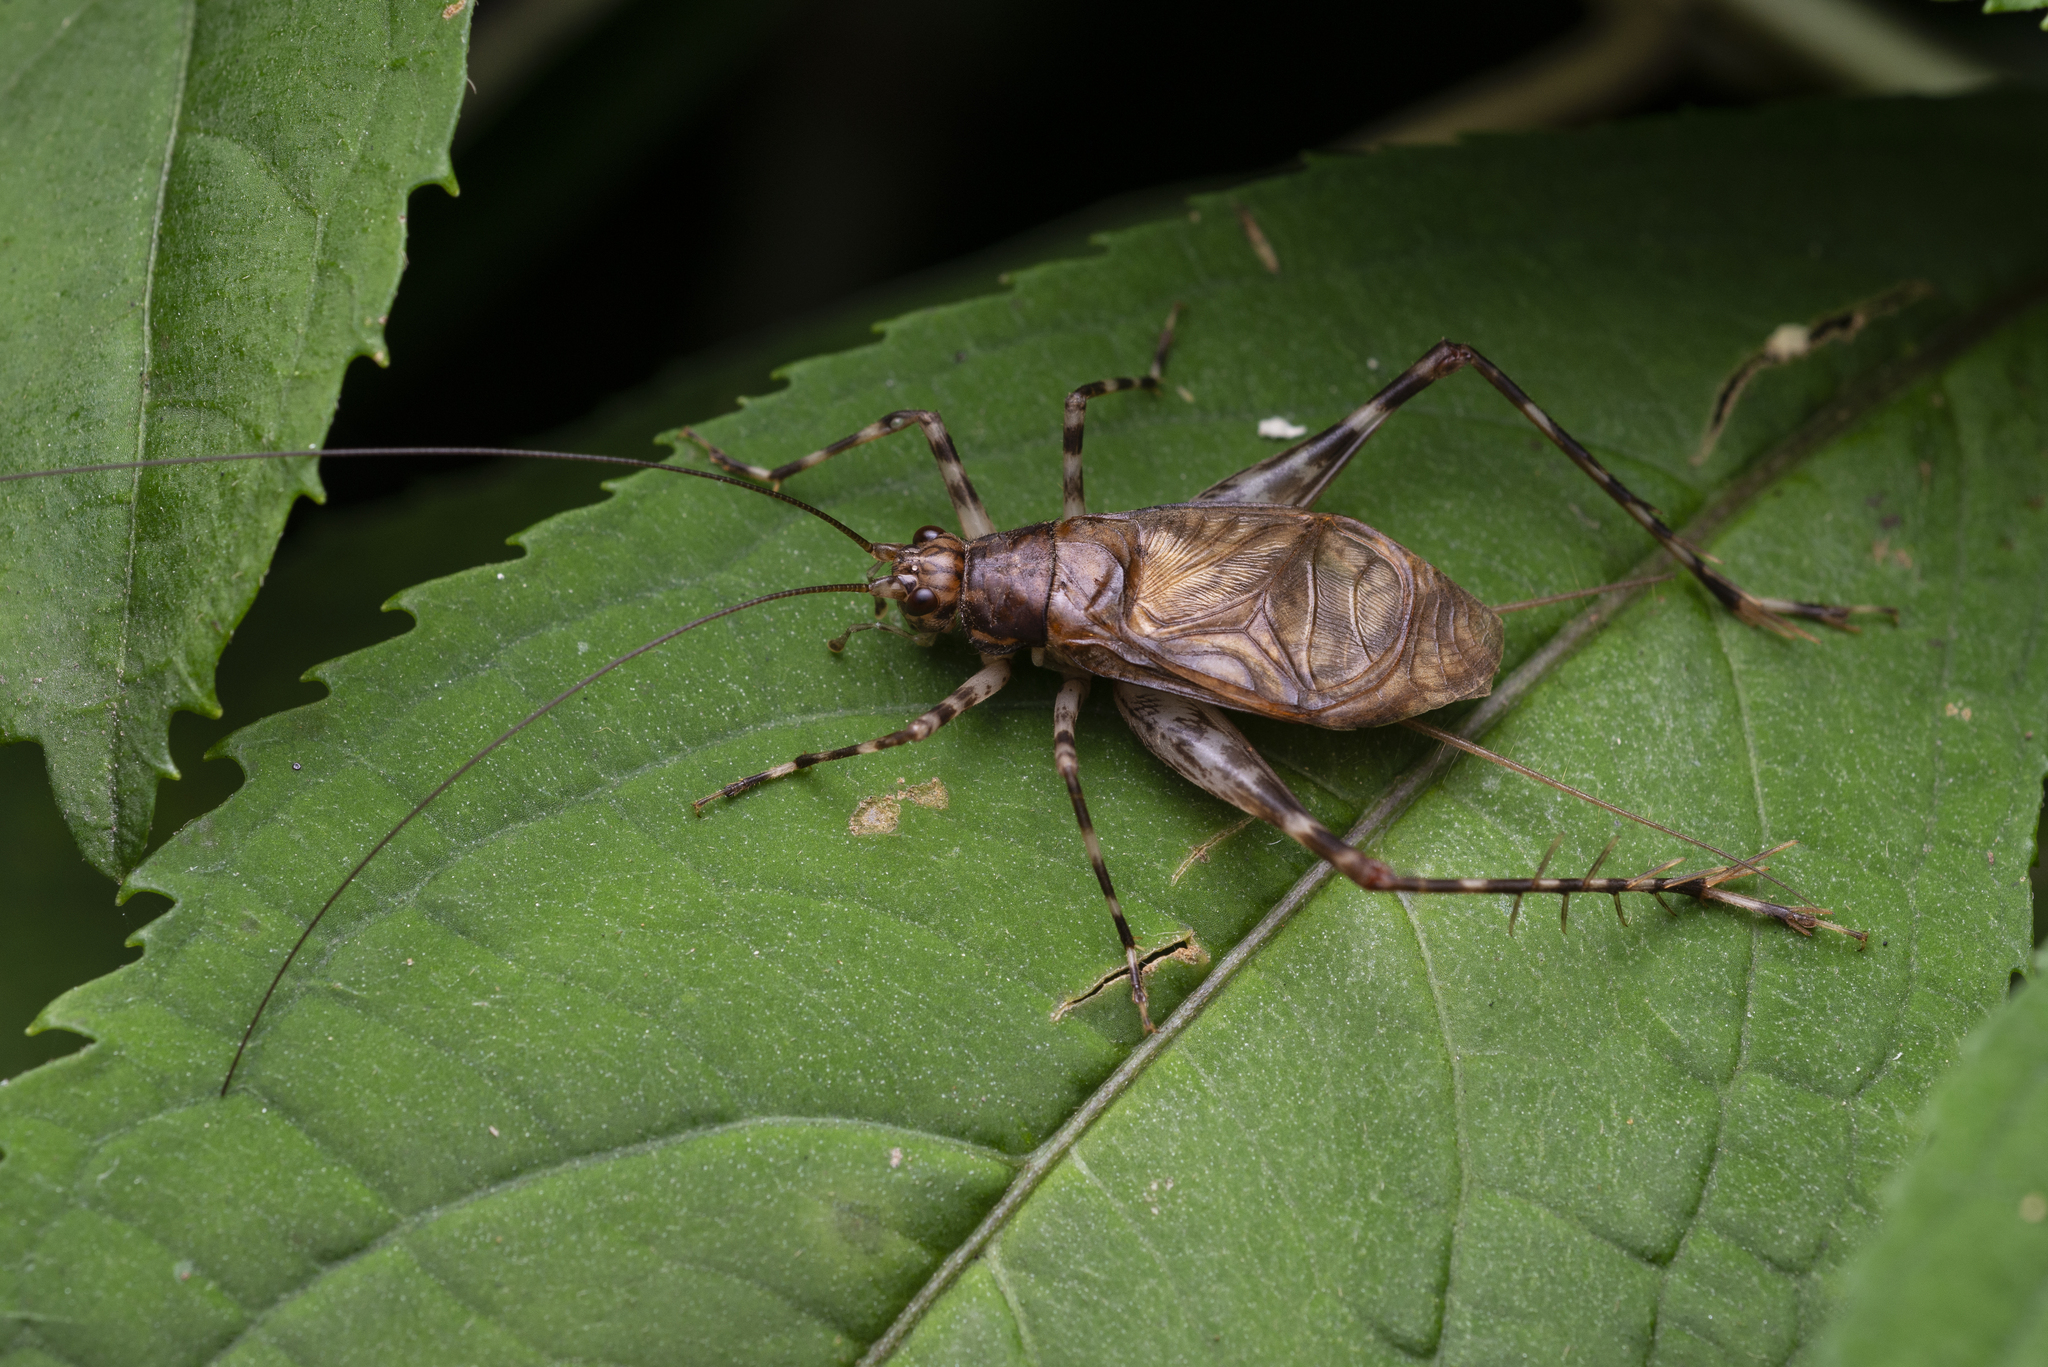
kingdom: Animalia
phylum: Arthropoda
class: Insecta
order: Orthoptera
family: Phalangopsidae
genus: Vescelia
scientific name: Vescelia pieli
